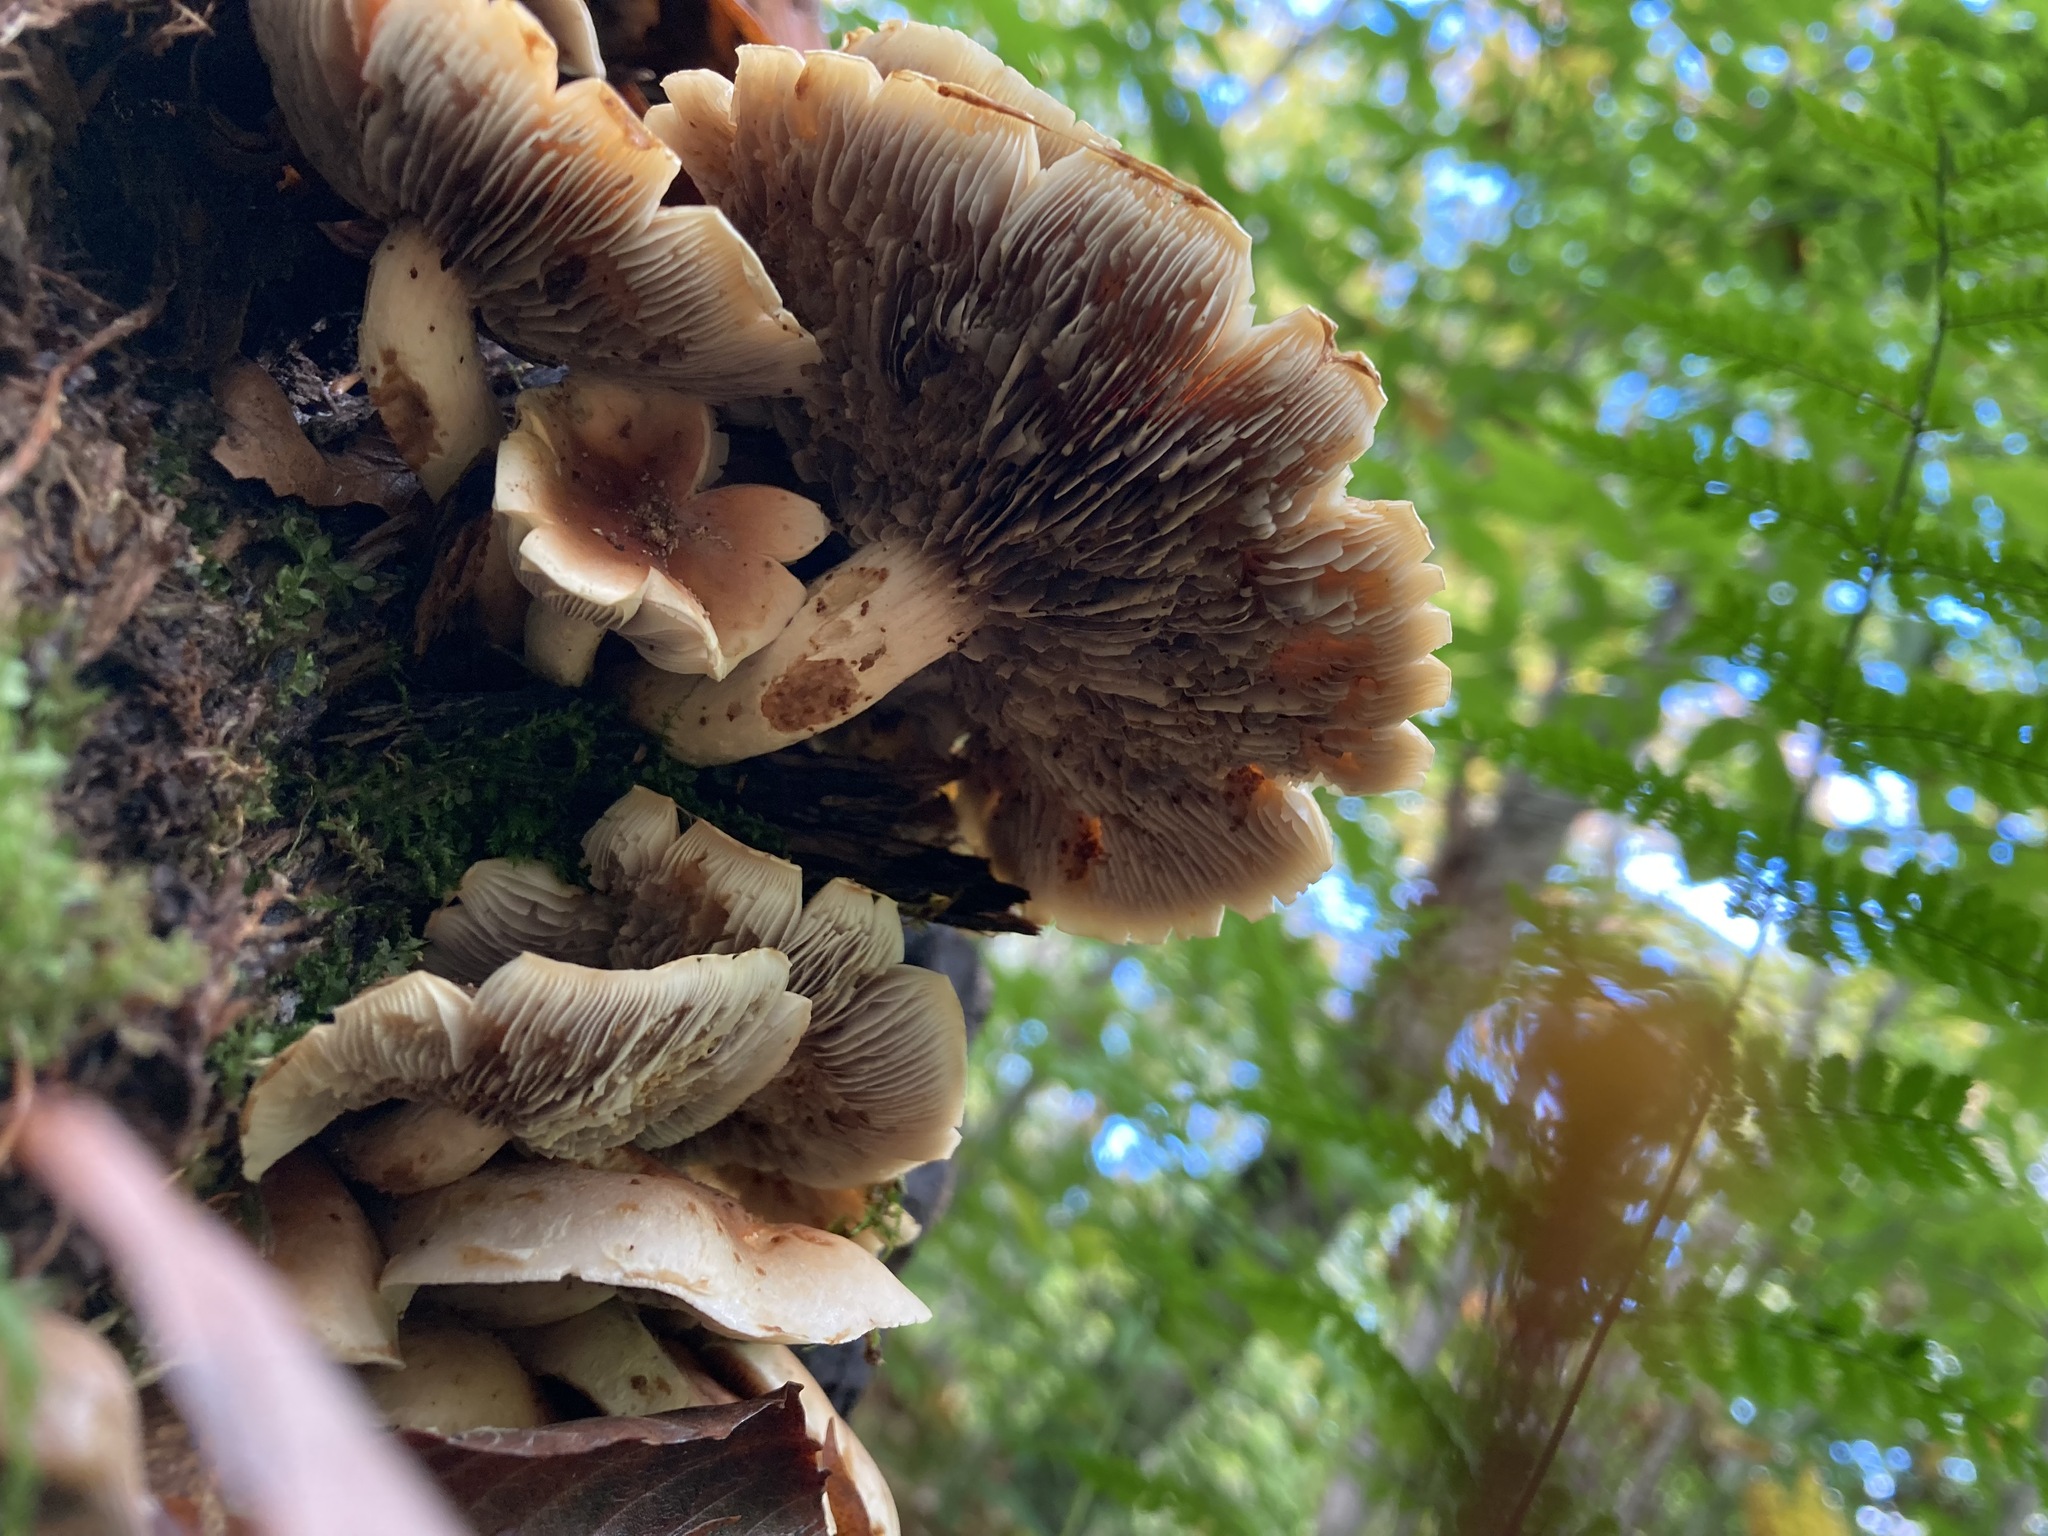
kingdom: Fungi
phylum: Basidiomycota
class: Agaricomycetes
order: Agaricales
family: Strophariaceae
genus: Hypholoma
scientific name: Hypholoma lateritium
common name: Brick caps
